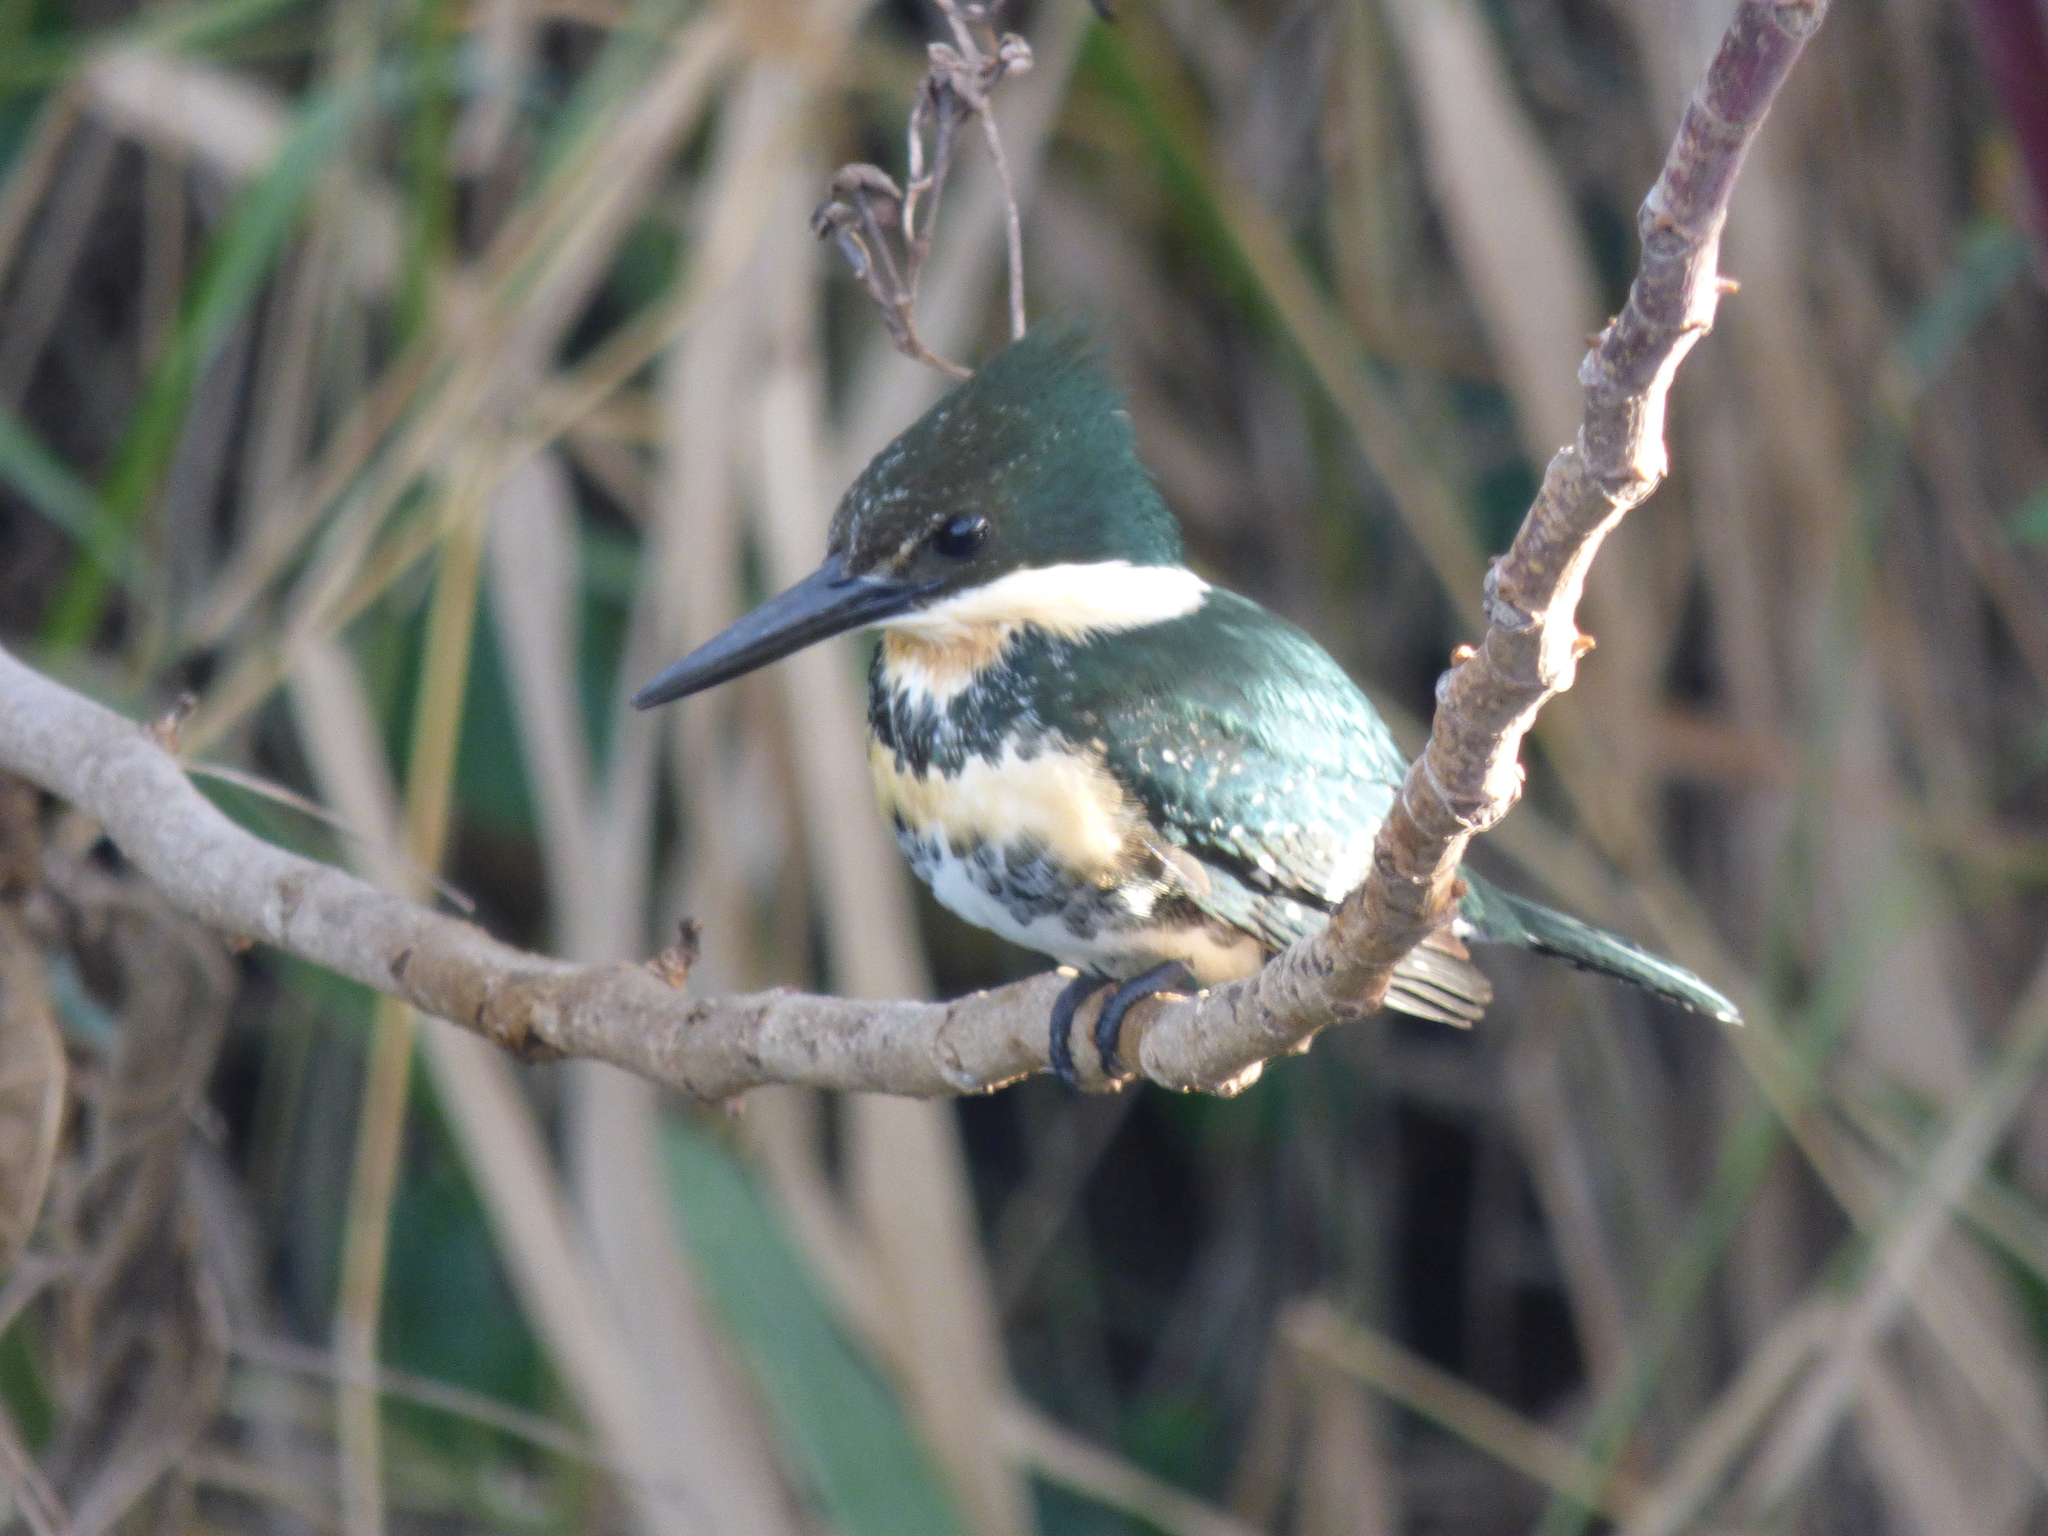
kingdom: Animalia
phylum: Chordata
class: Aves
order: Coraciiformes
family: Alcedinidae
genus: Chloroceryle
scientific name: Chloroceryle americana
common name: Green kingfisher
